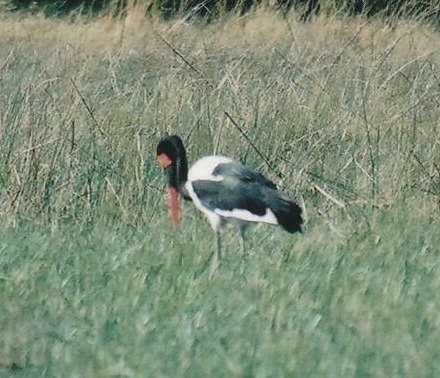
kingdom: Animalia
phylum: Chordata
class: Aves
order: Ciconiiformes
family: Ciconiidae
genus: Ephippiorhynchus
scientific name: Ephippiorhynchus senegalensis
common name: Saddle-billed stork
